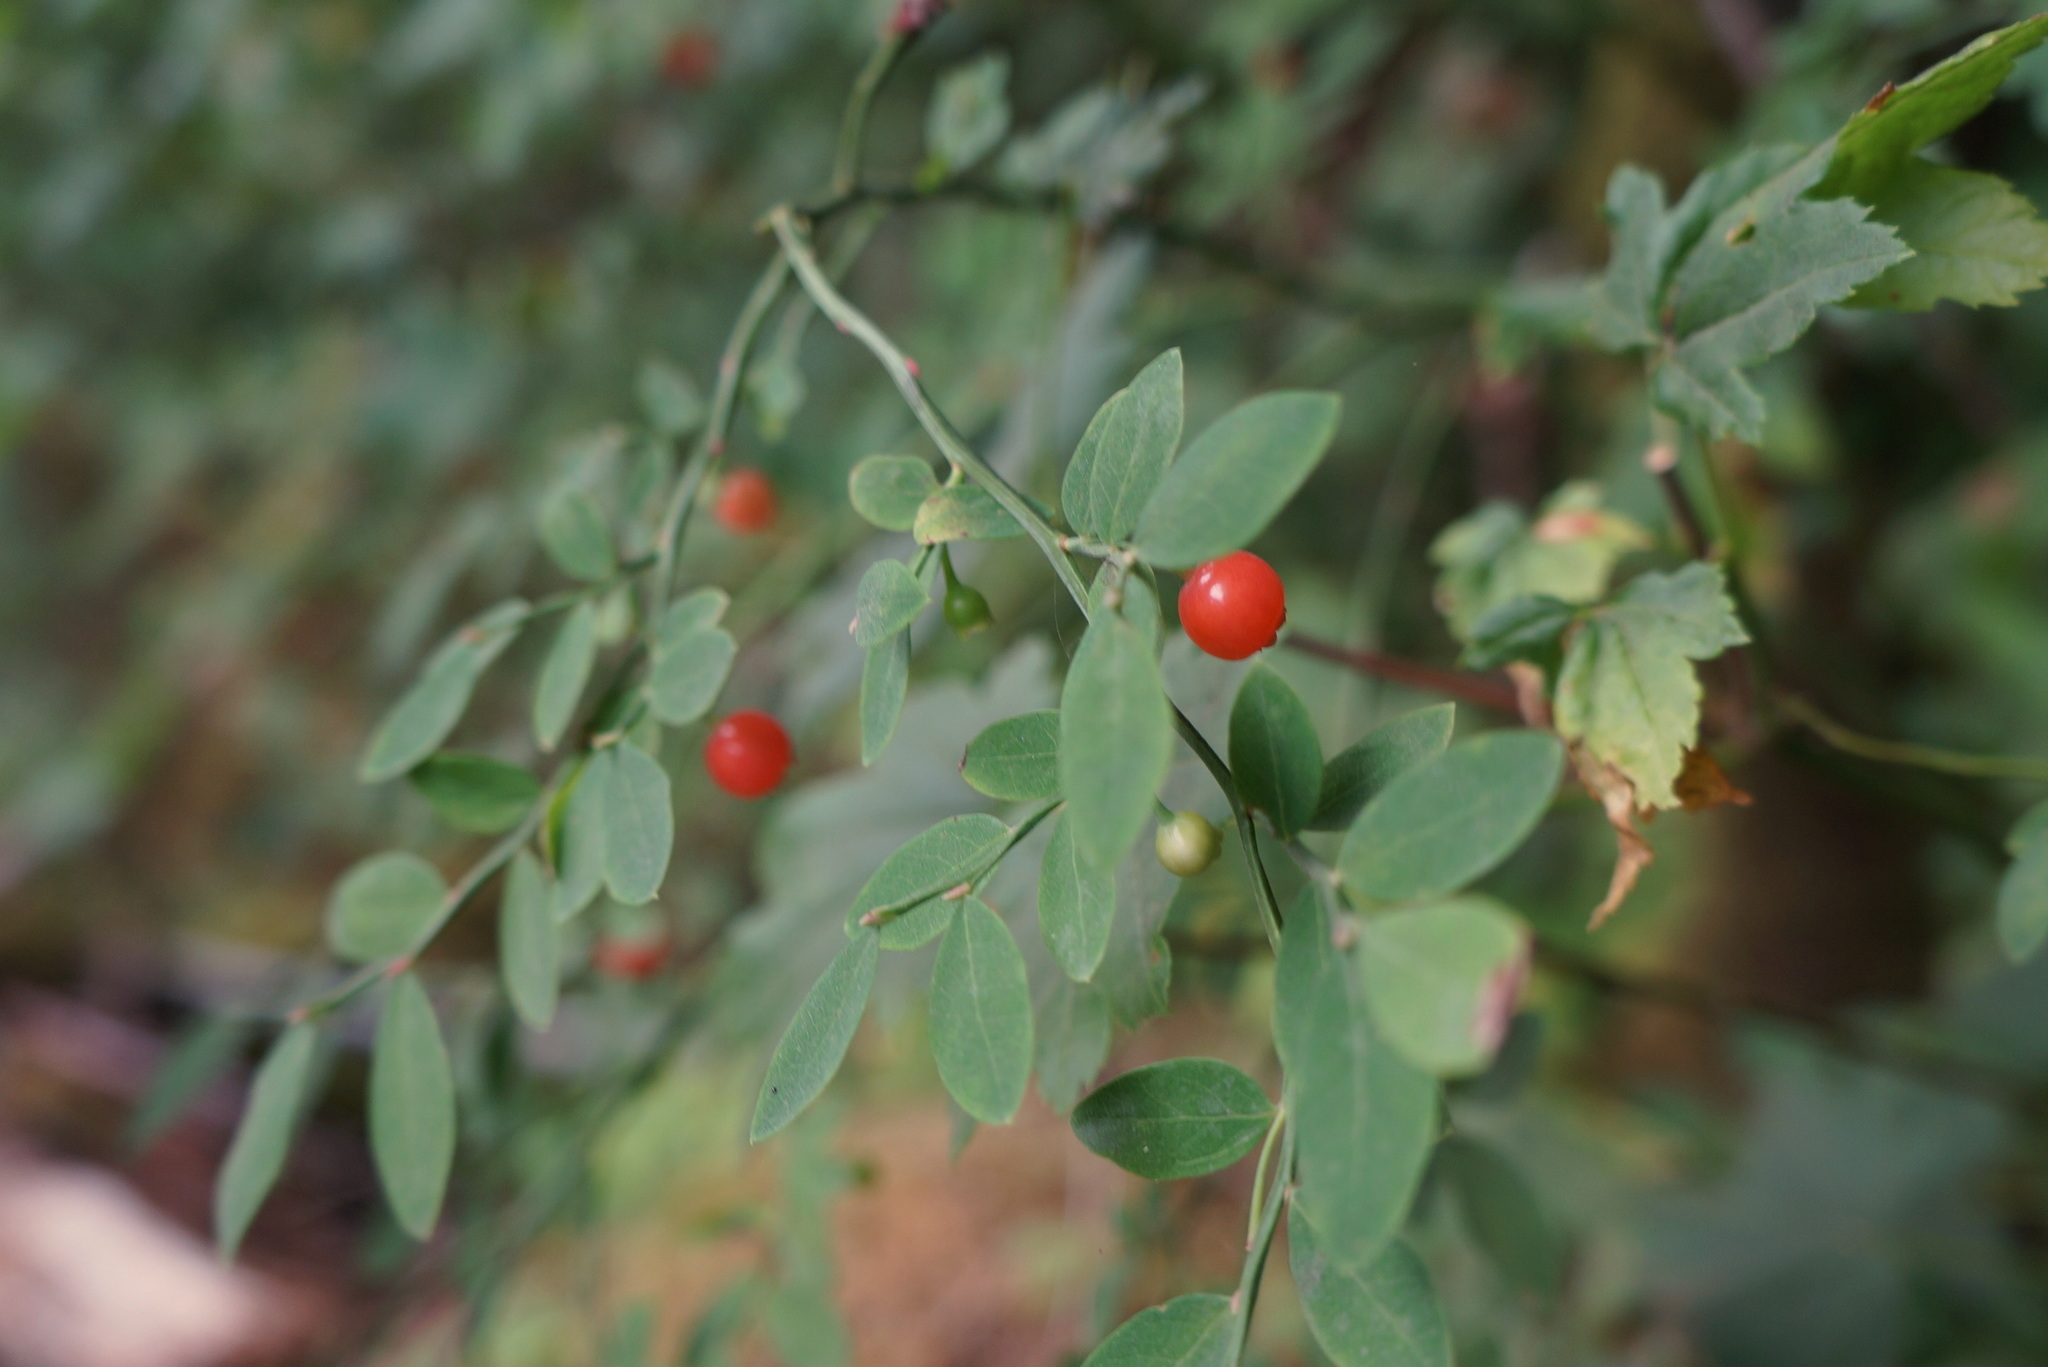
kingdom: Plantae
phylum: Tracheophyta
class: Magnoliopsida
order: Ericales
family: Ericaceae
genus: Vaccinium
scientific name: Vaccinium parvifolium
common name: Red-huckleberry
